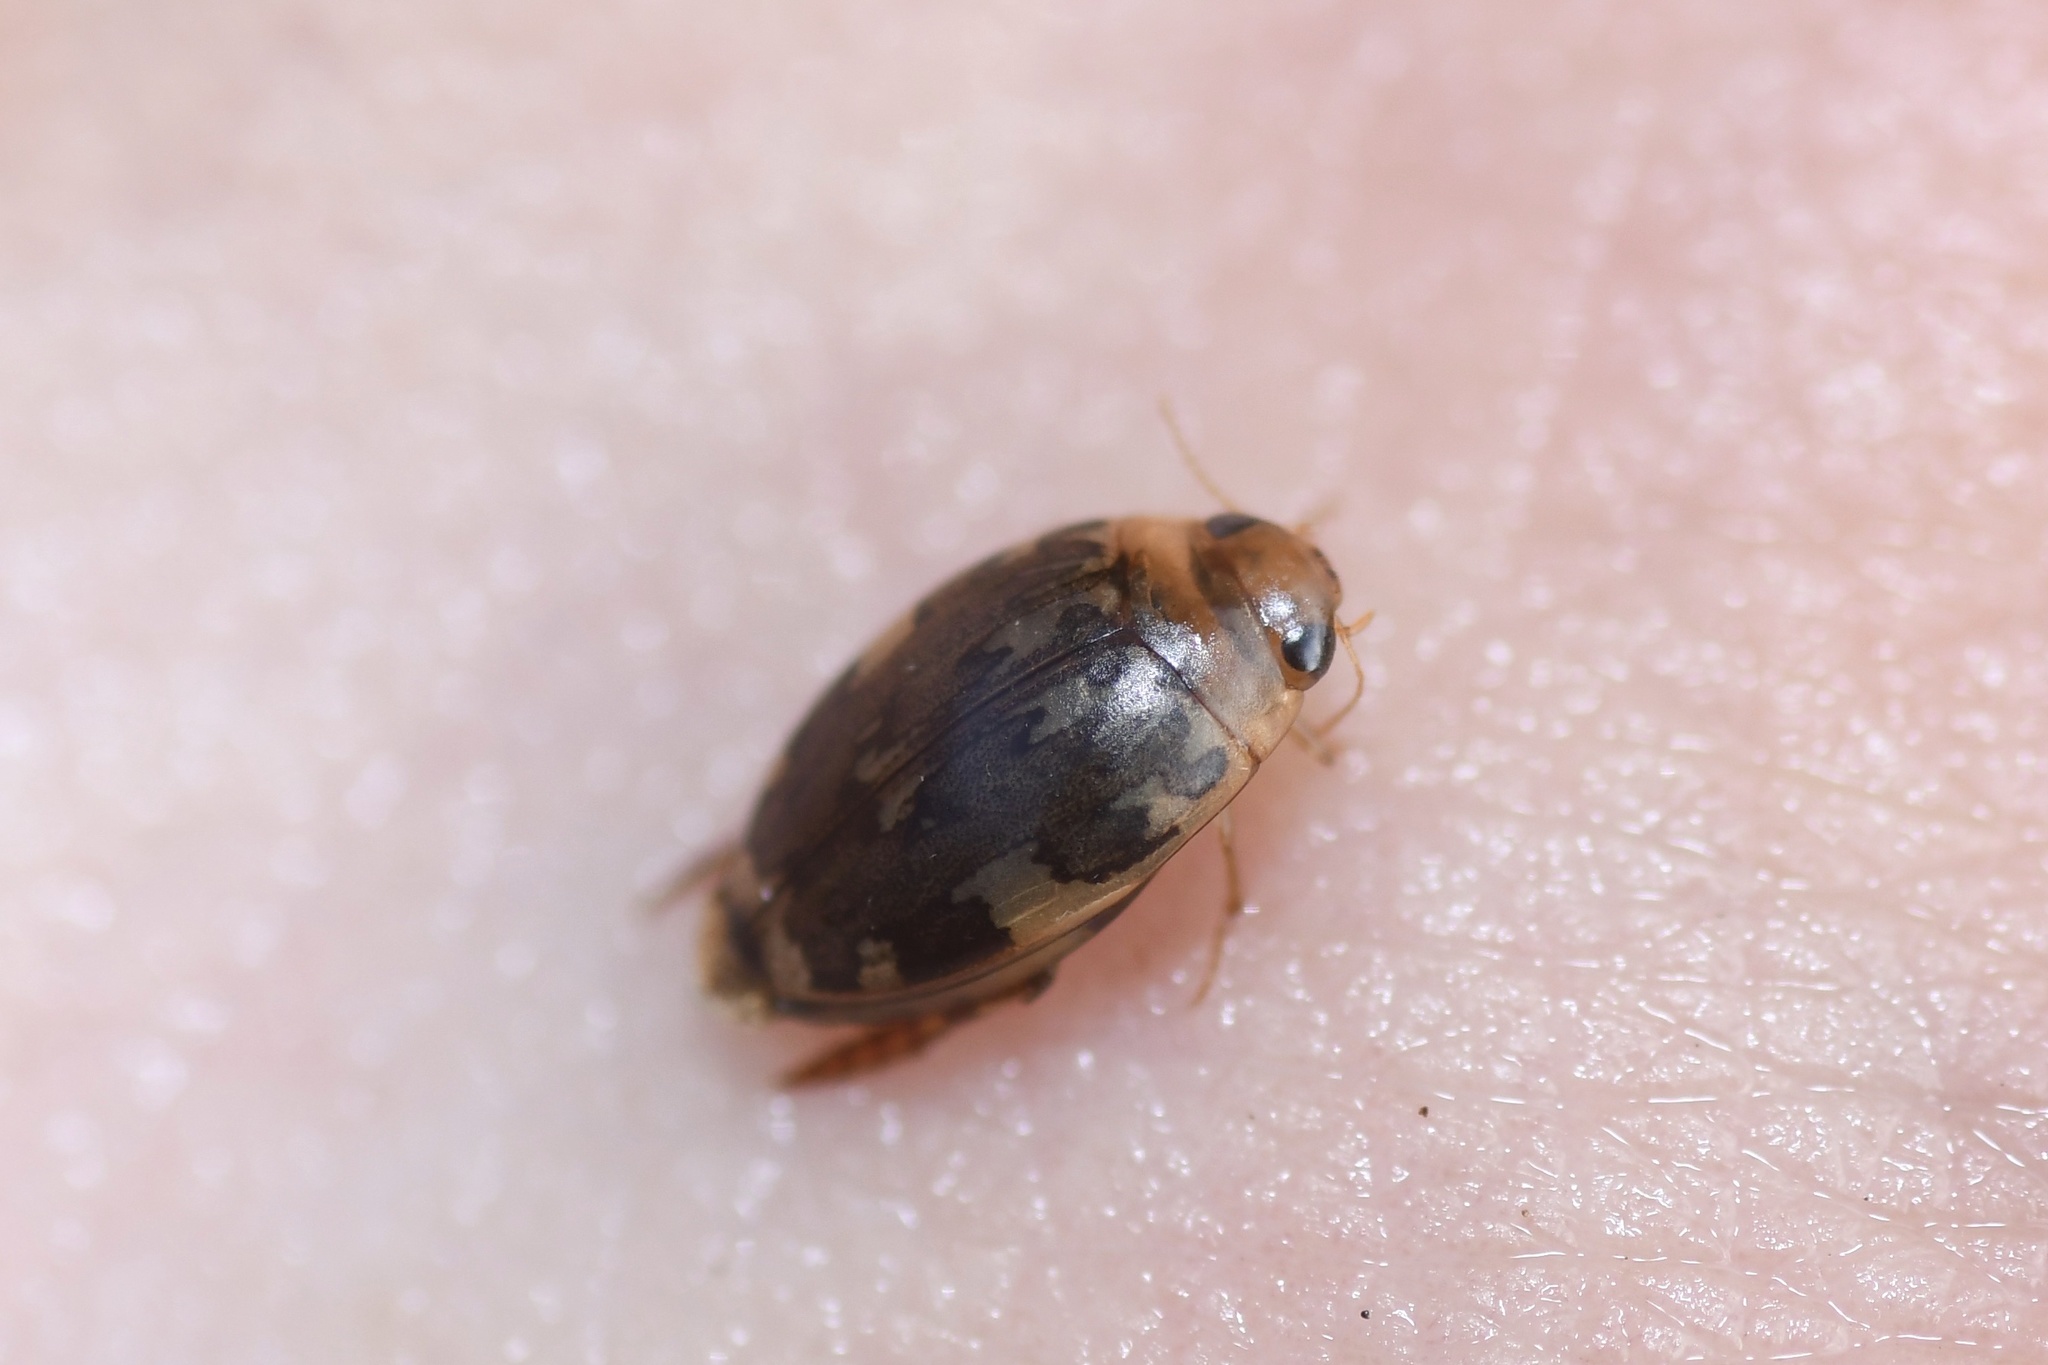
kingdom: Animalia
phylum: Arthropoda
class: Insecta
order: Coleoptera
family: Dytiscidae
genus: Laccophilus
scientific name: Laccophilus maculosus
